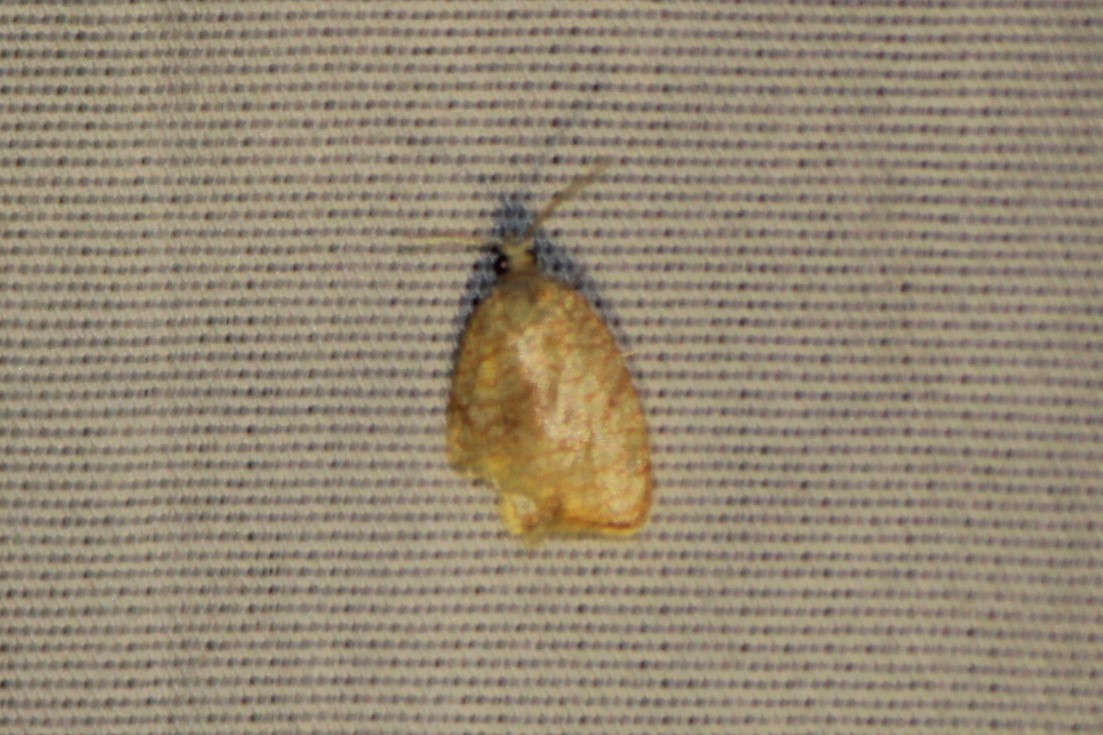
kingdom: Animalia
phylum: Arthropoda
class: Insecta
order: Lepidoptera
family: Tortricidae
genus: Acleris
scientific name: Acleris forsskaleana
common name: Maple button
